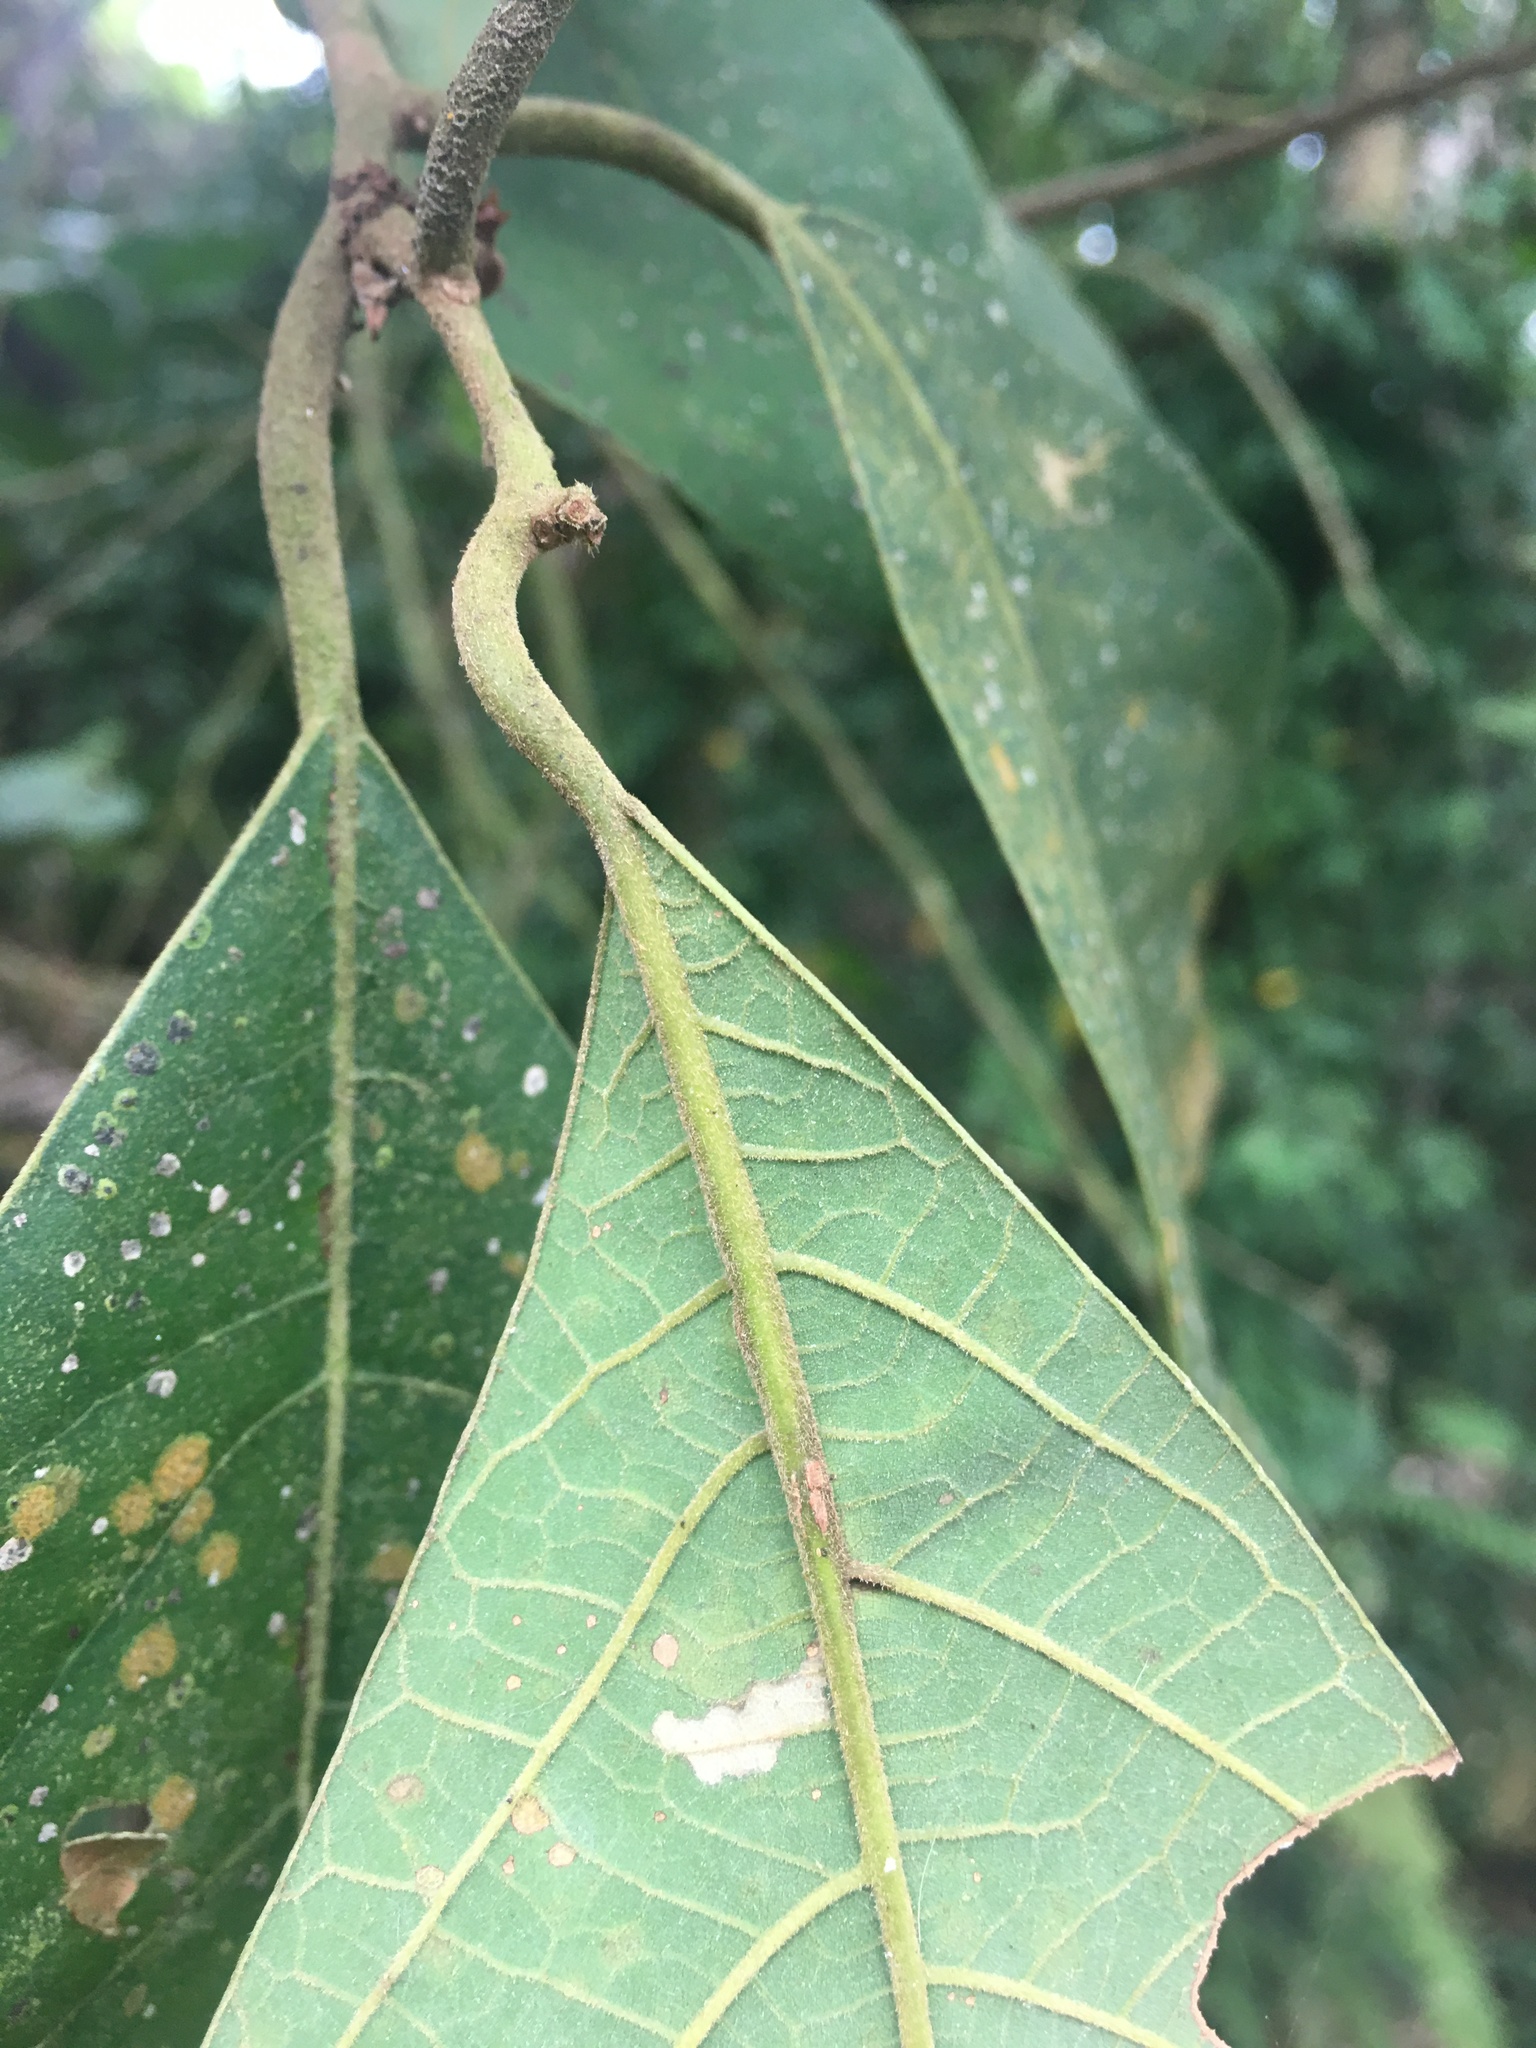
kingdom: Plantae
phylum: Tracheophyta
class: Magnoliopsida
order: Laurales
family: Lauraceae
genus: Litsea
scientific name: Litsea akoensis
